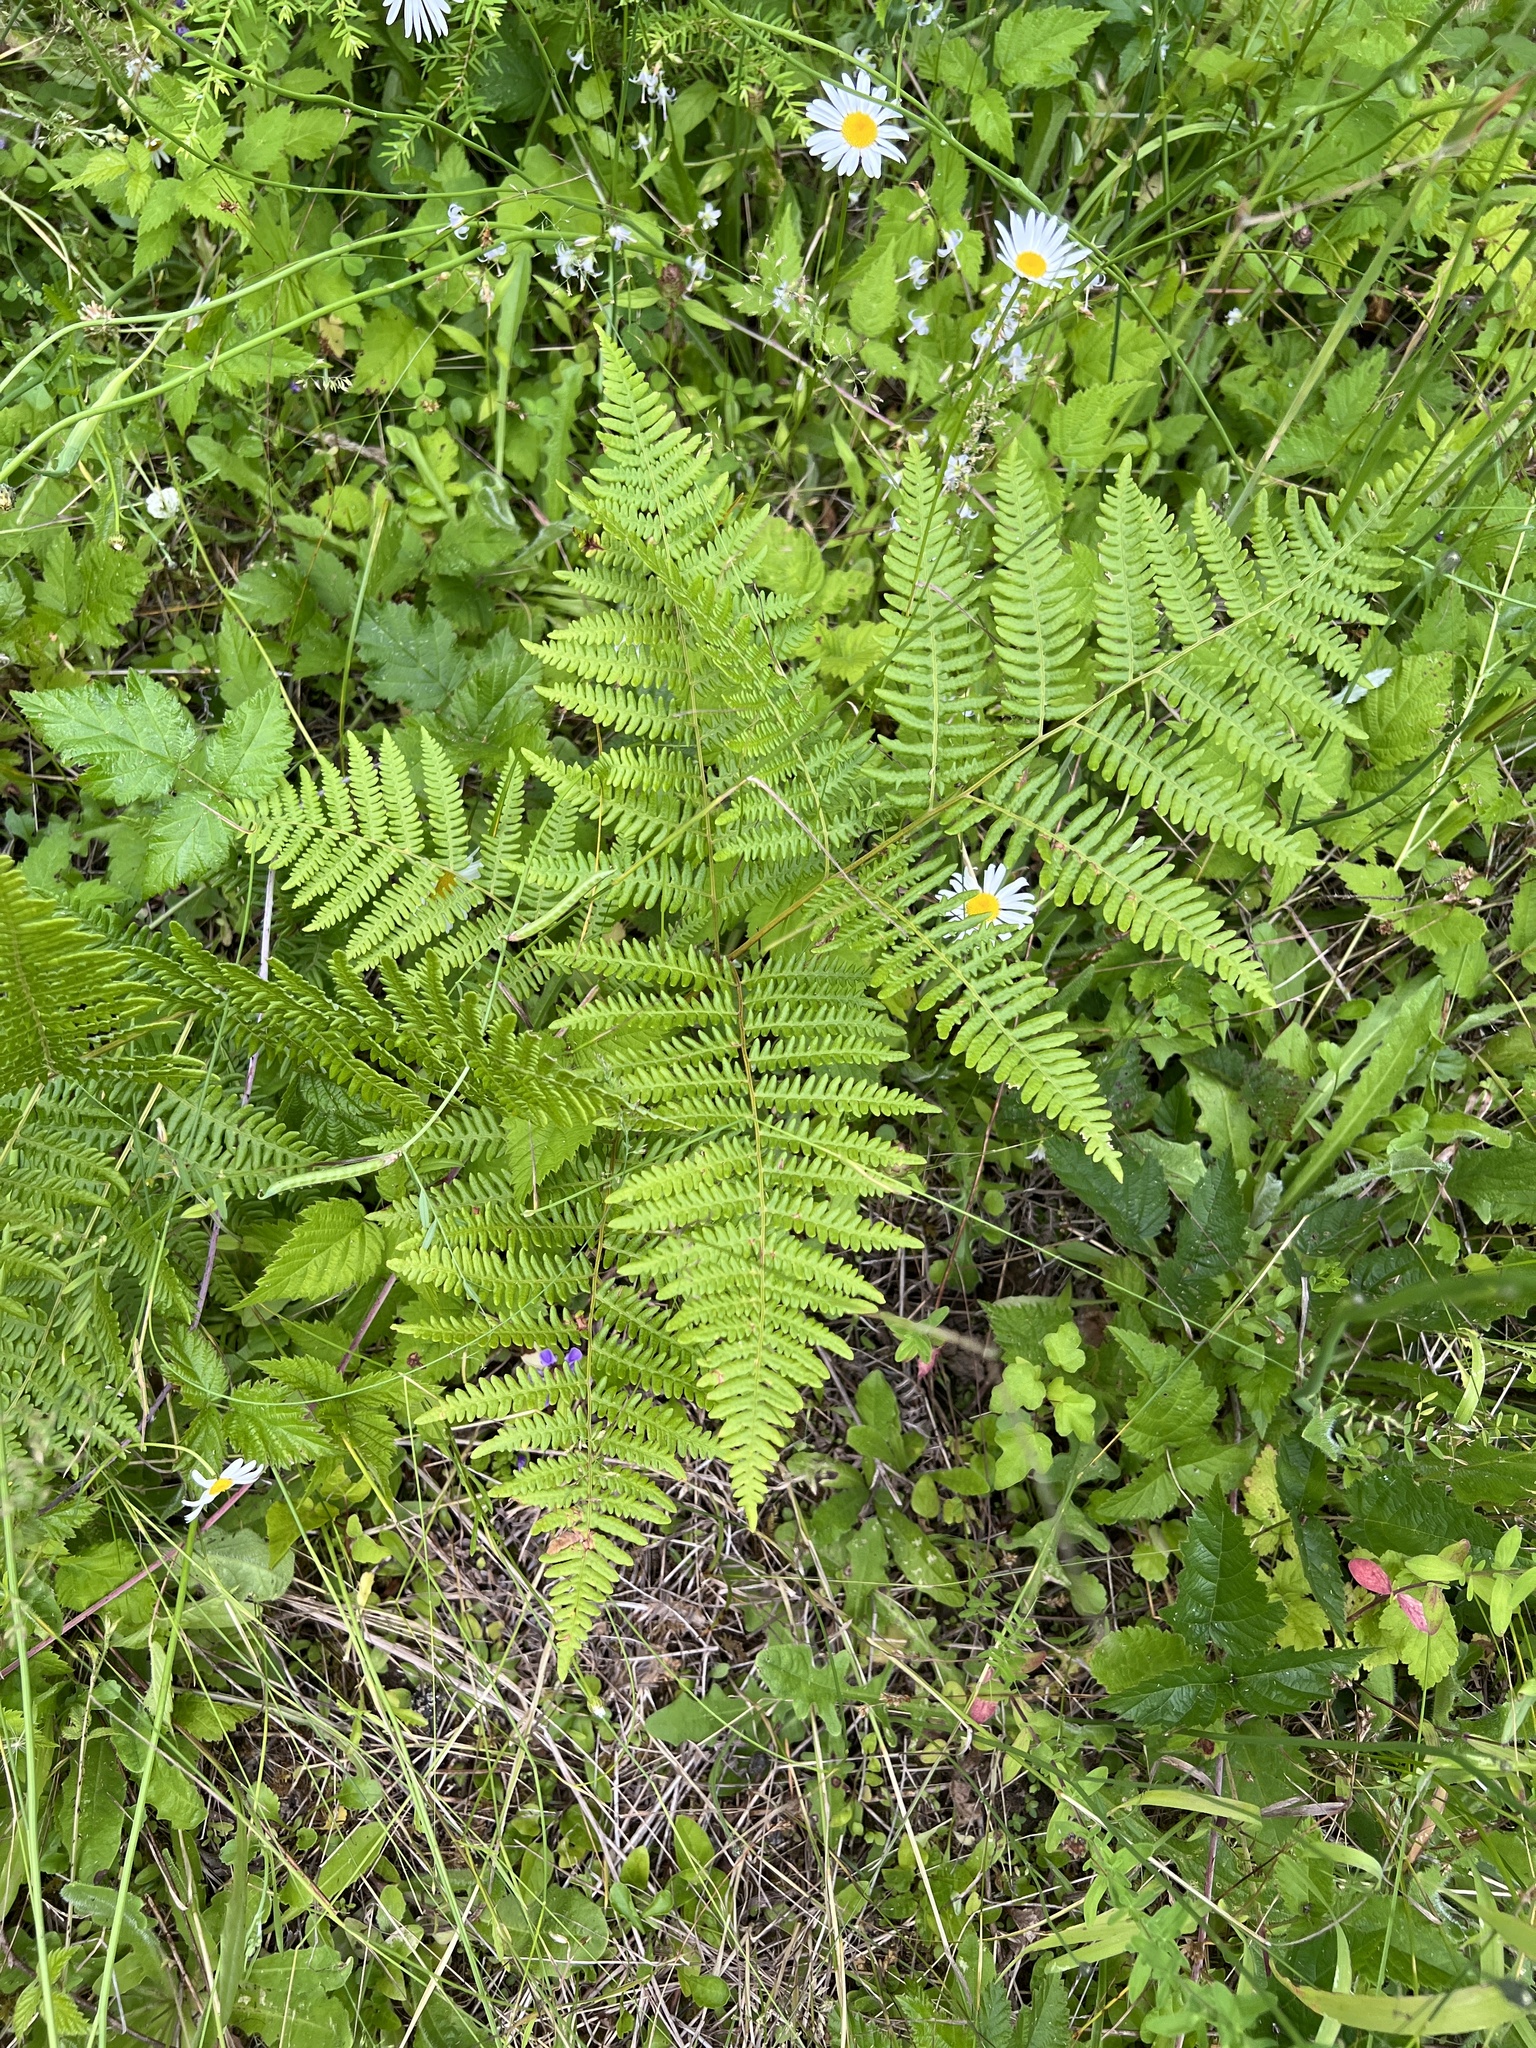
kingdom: Plantae
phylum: Tracheophyta
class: Polypodiopsida
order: Polypodiales
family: Dennstaedtiaceae
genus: Pteridium
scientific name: Pteridium aquilinum
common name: Bracken
